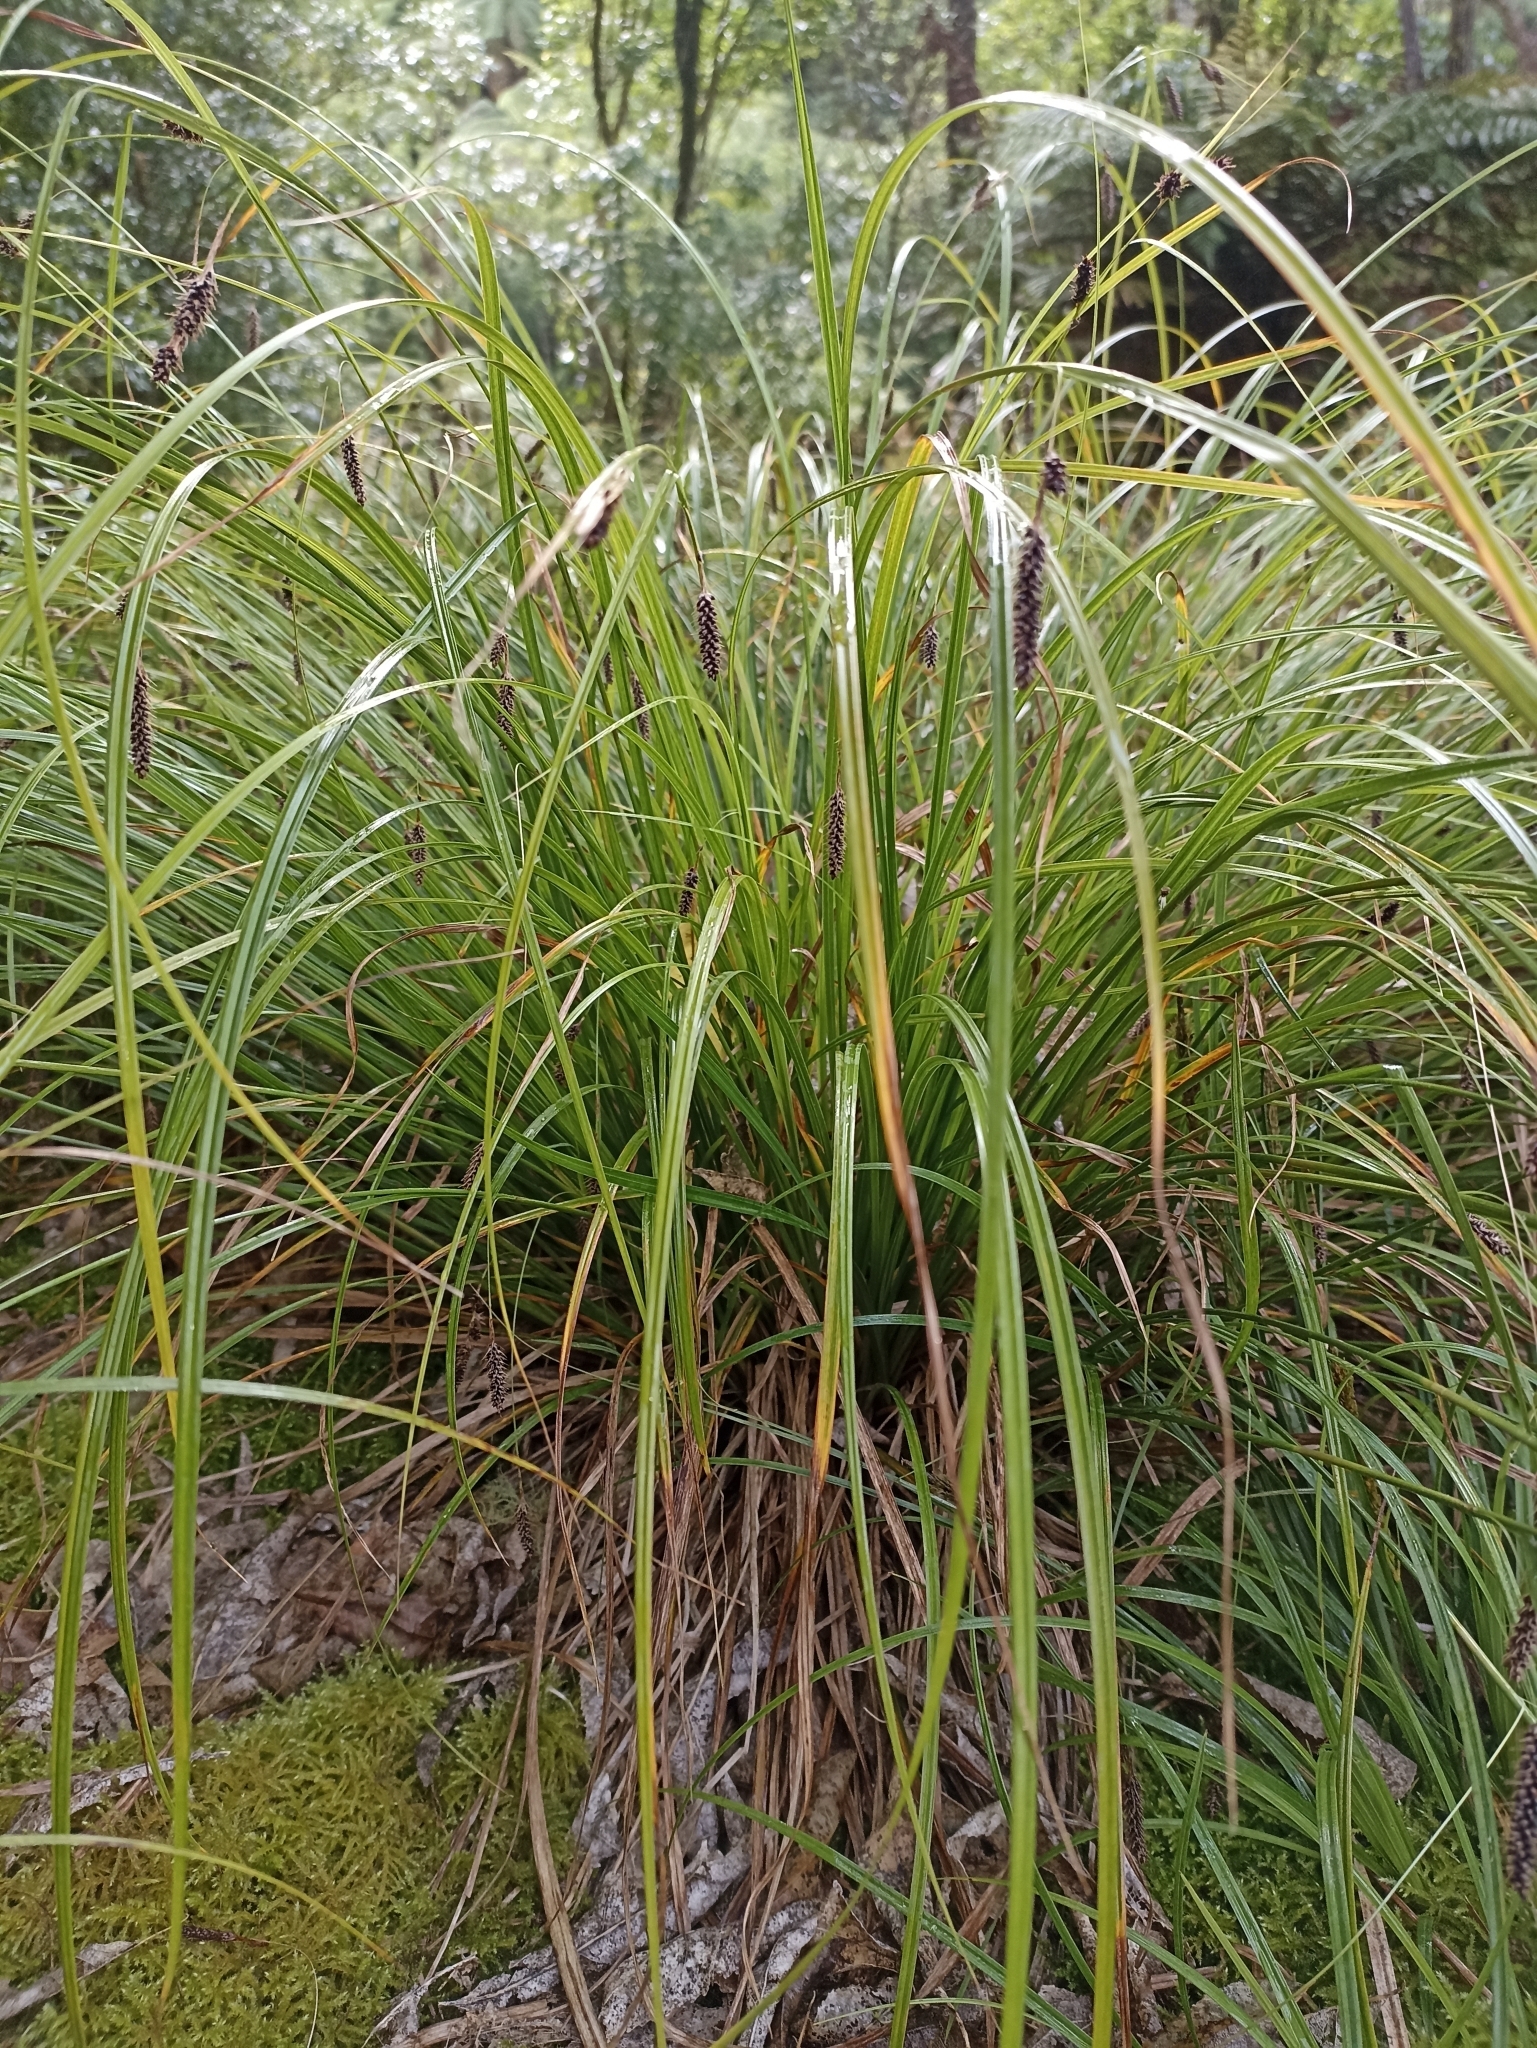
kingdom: Plantae
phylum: Tracheophyta
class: Liliopsida
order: Poales
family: Cyperaceae
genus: Carex
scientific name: Carex solandri
